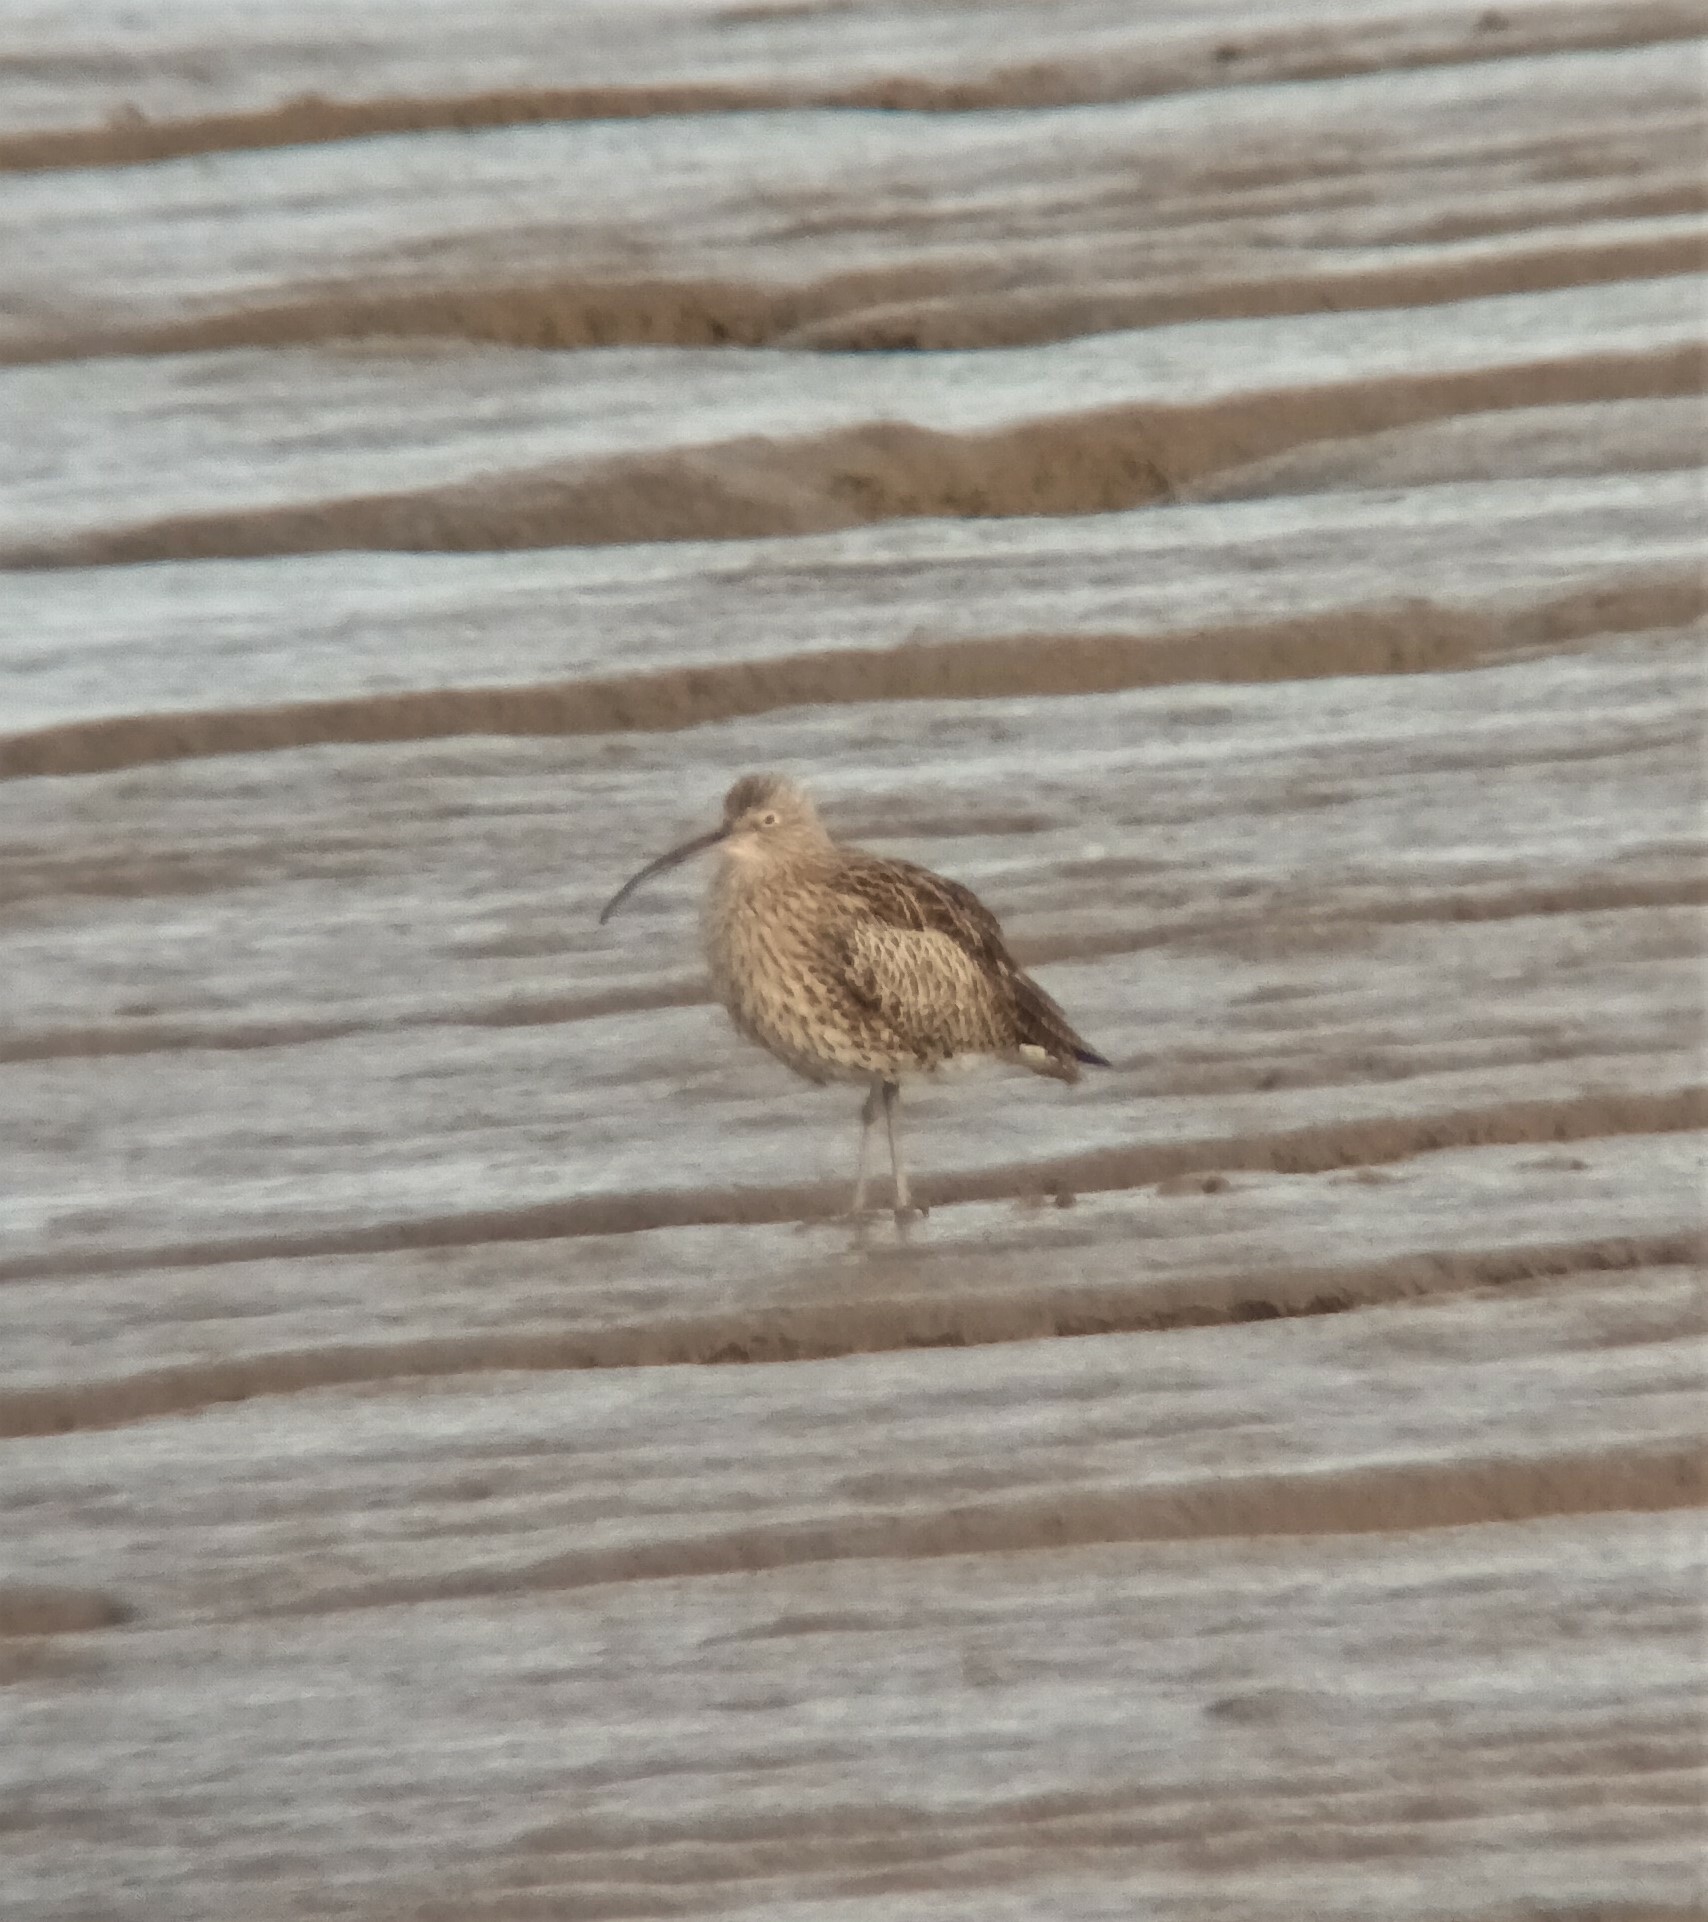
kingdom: Animalia
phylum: Chordata
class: Aves
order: Charadriiformes
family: Scolopacidae
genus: Numenius
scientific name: Numenius arquata
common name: Eurasian curlew
